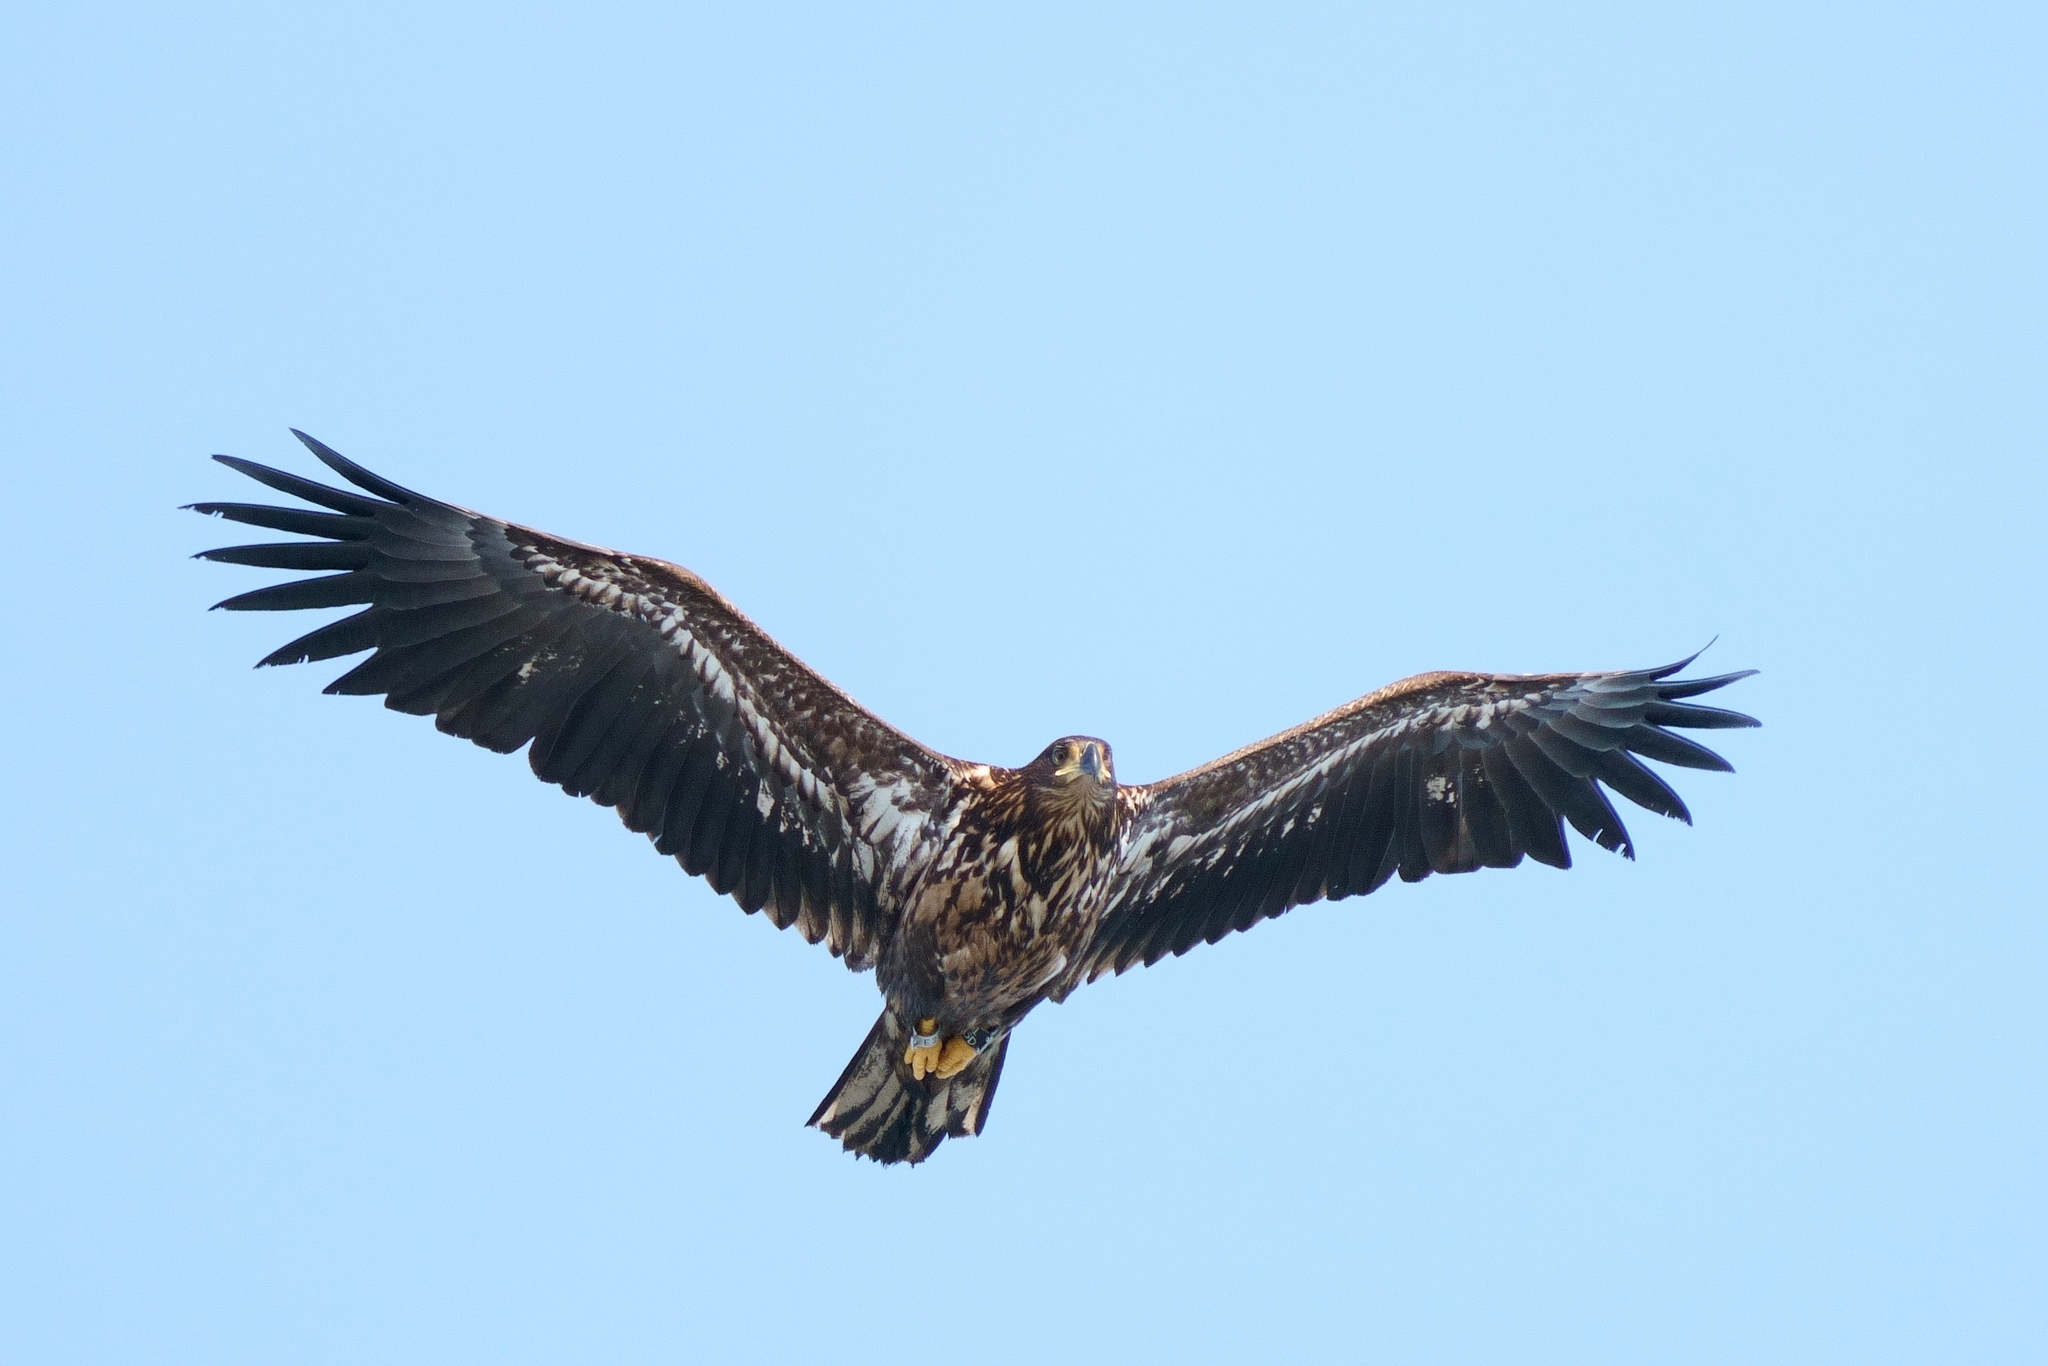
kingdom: Animalia
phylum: Chordata
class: Aves
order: Accipitriformes
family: Accipitridae
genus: Haliaeetus
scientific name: Haliaeetus albicilla
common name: White-tailed eagle
